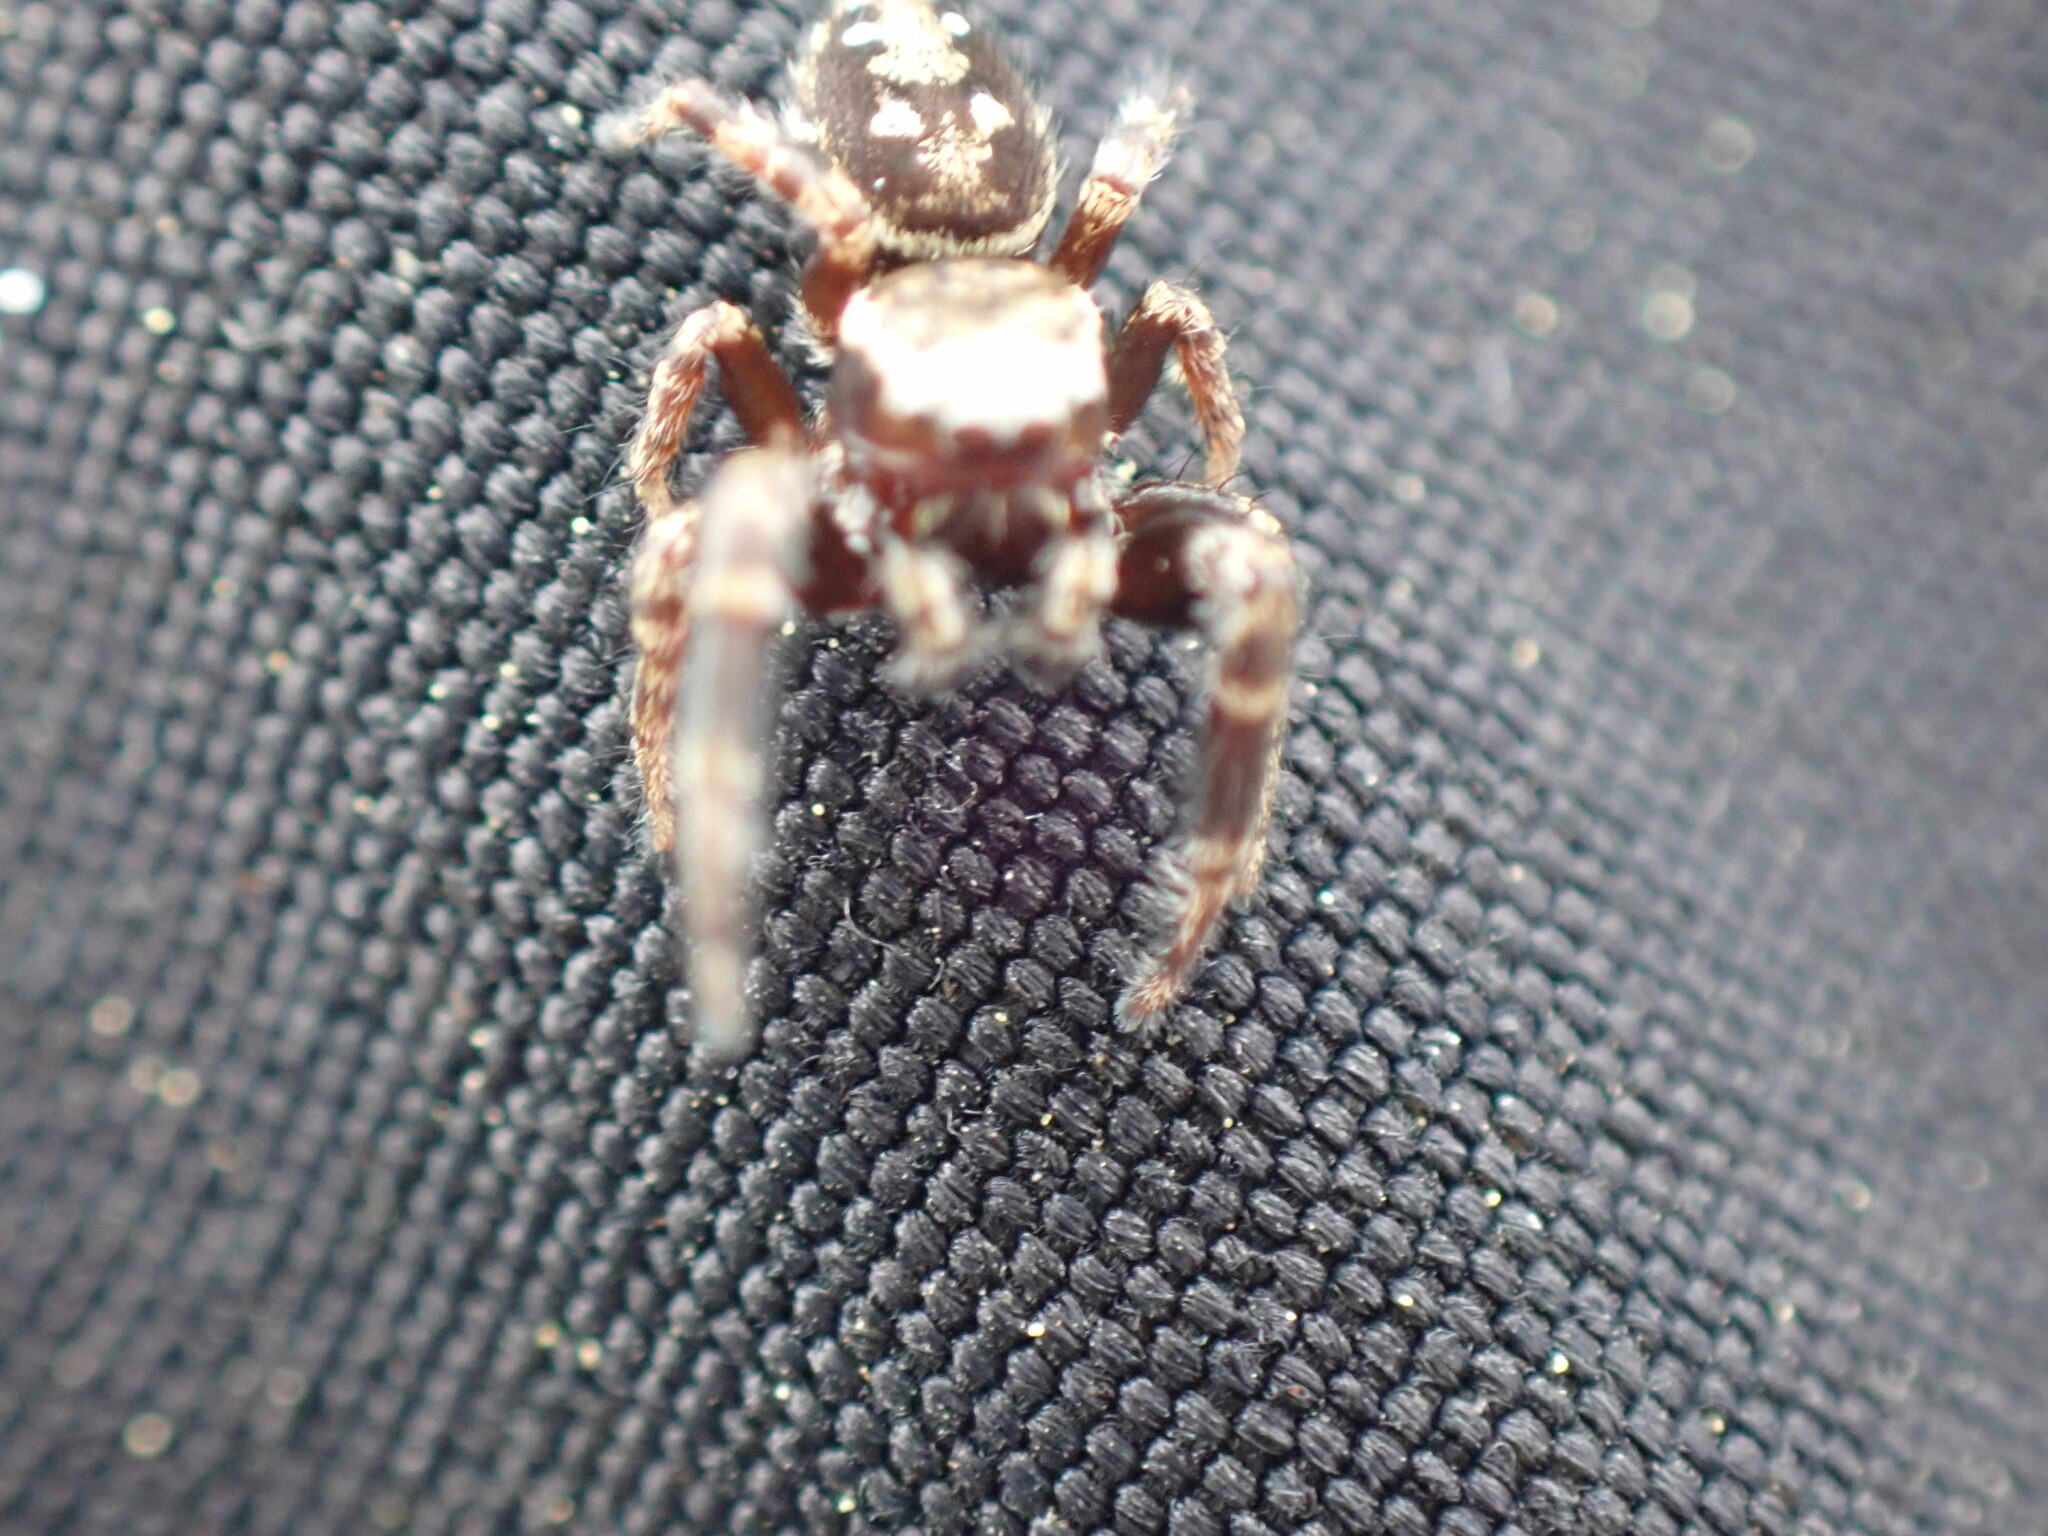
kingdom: Animalia
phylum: Arthropoda
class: Arachnida
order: Araneae
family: Salticidae
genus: Dendryphantes
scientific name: Dendryphantes nigromaculatus
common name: Black-marked jumping spider
